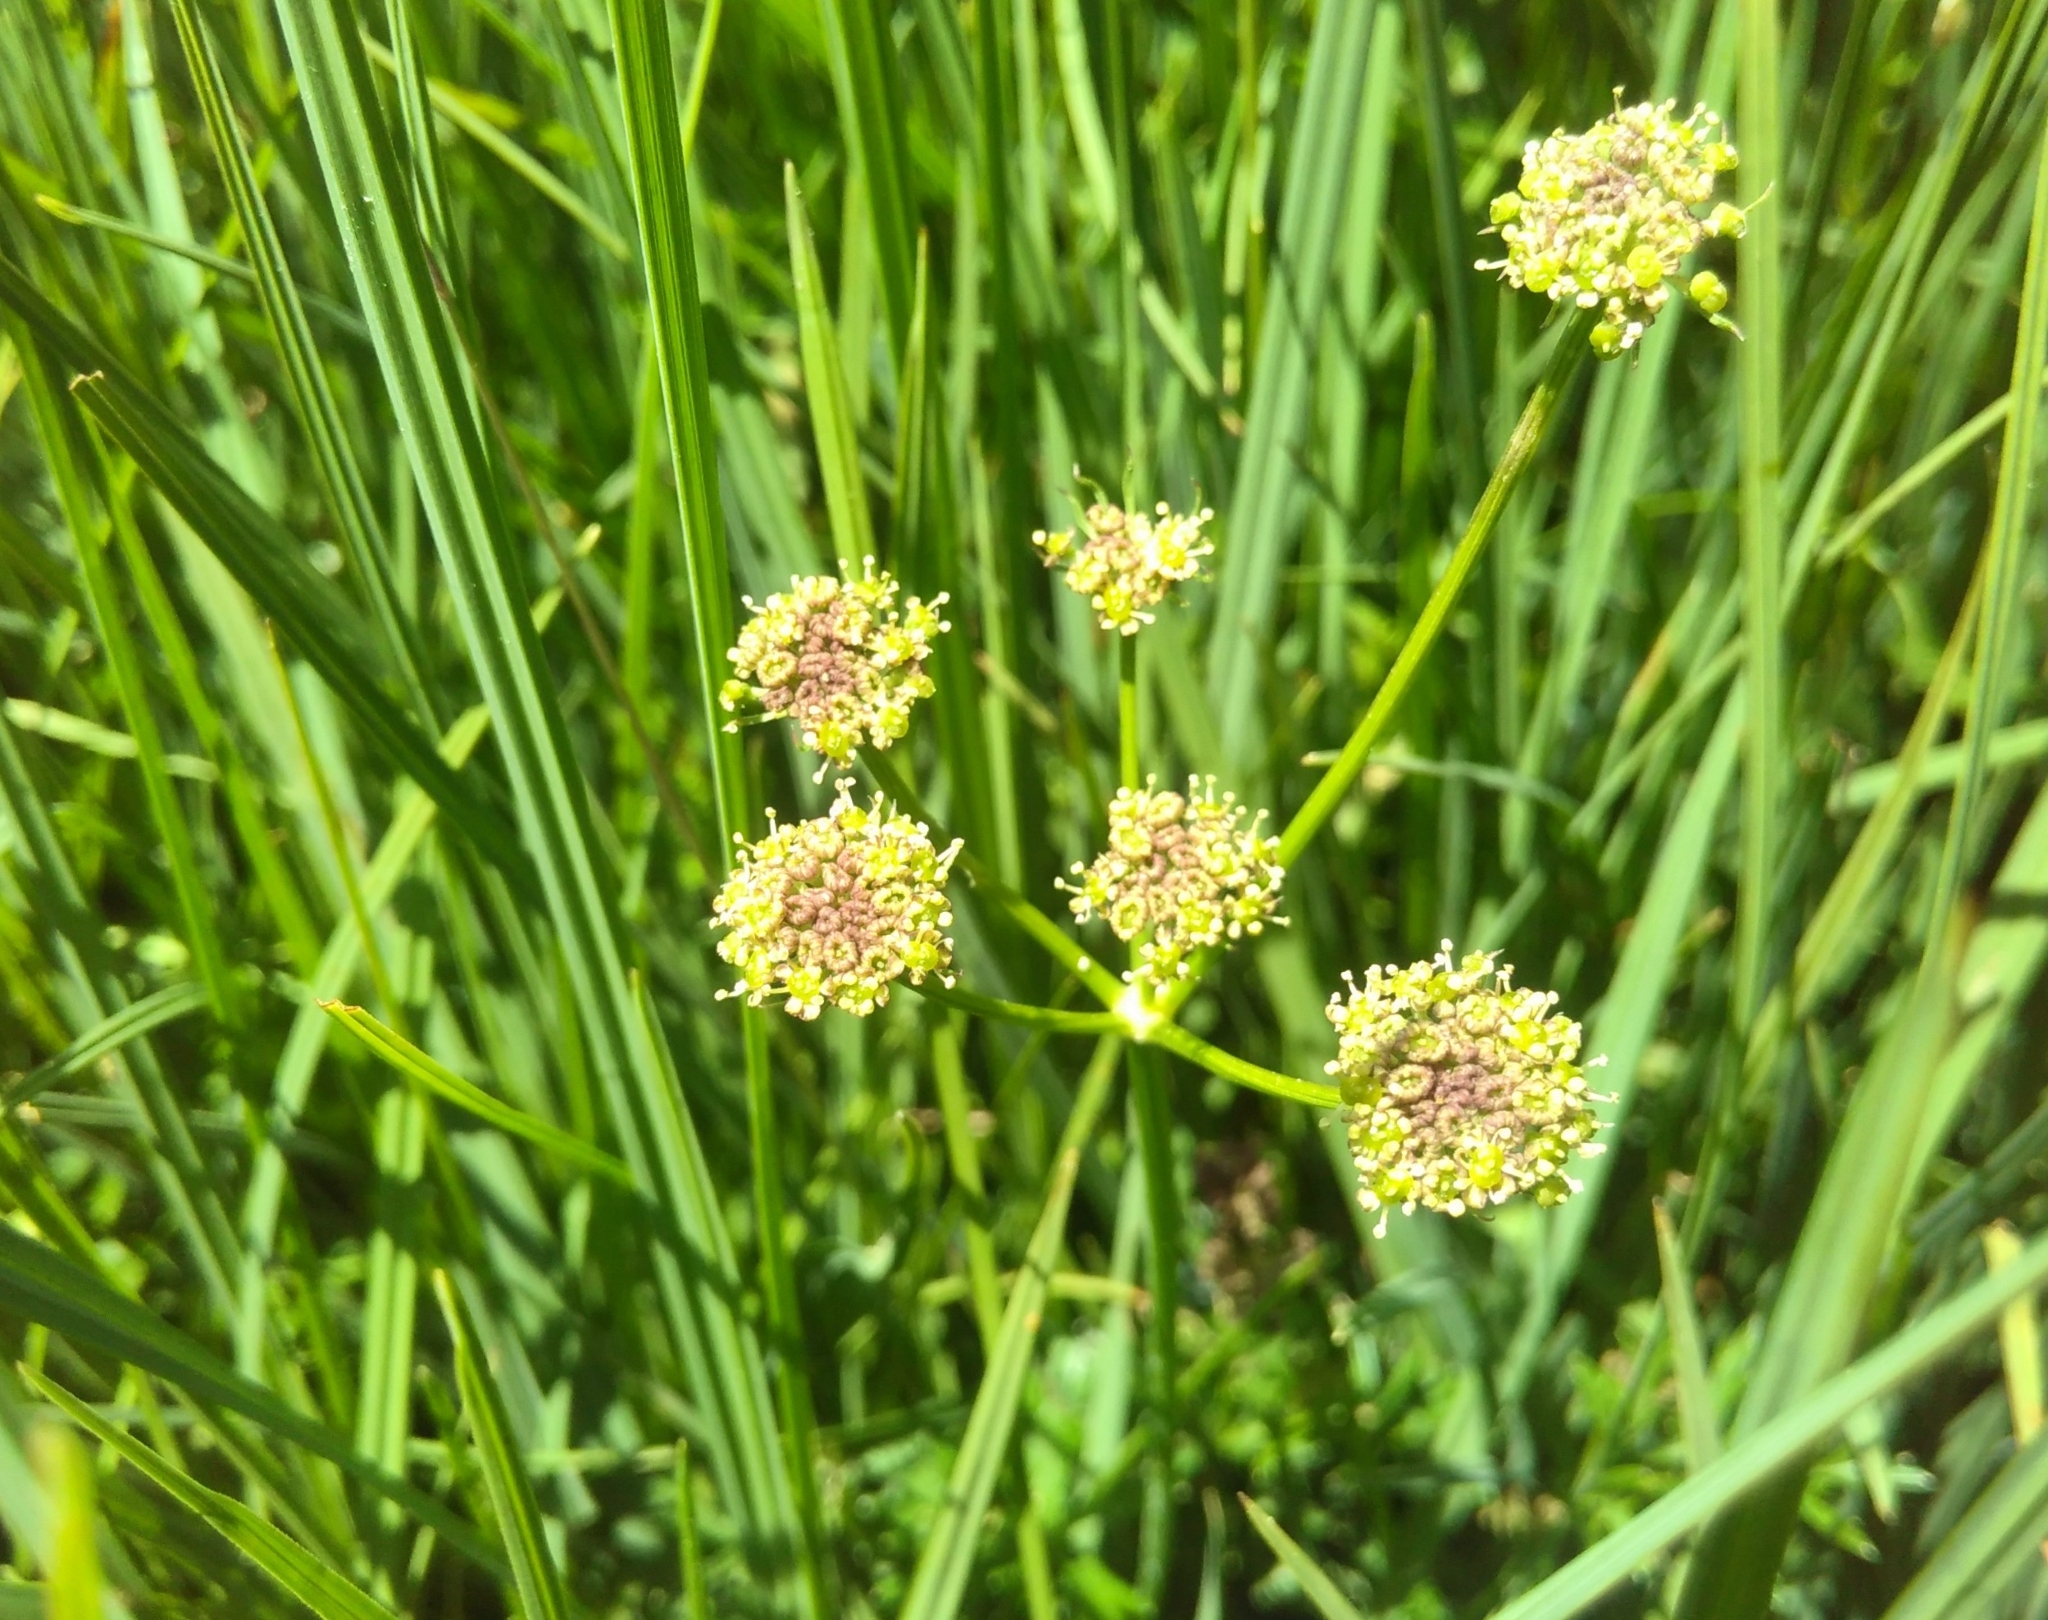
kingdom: Plantae
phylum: Tracheophyta
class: Magnoliopsida
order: Apiales
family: Apiaceae
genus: Epikeros
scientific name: Epikeros pyrenaeus
